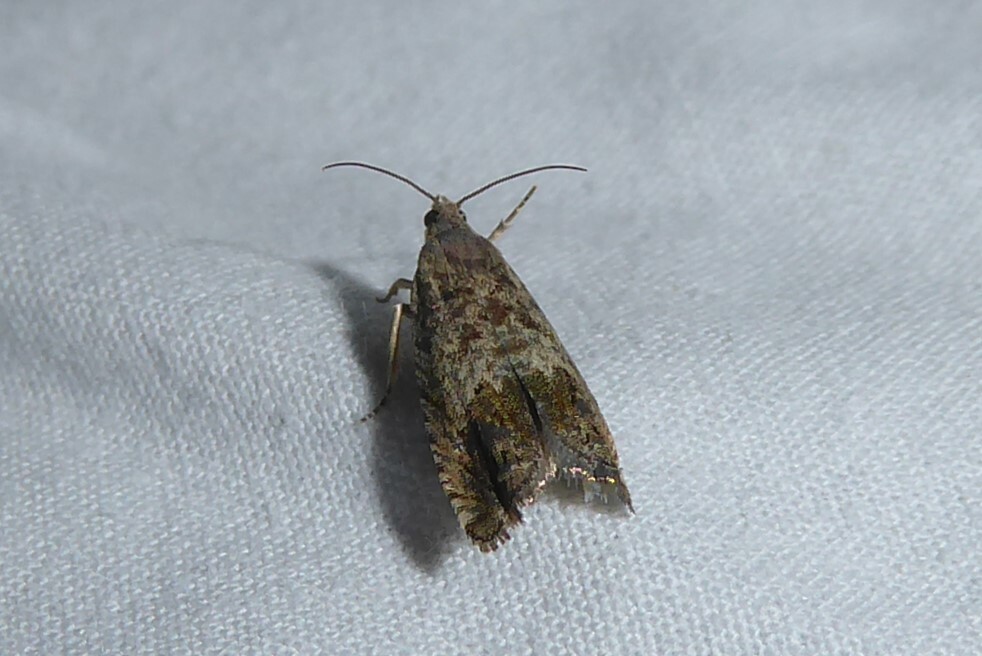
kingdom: Animalia
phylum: Arthropoda
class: Insecta
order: Lepidoptera
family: Tortricidae
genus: Cydia
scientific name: Cydia succedana
